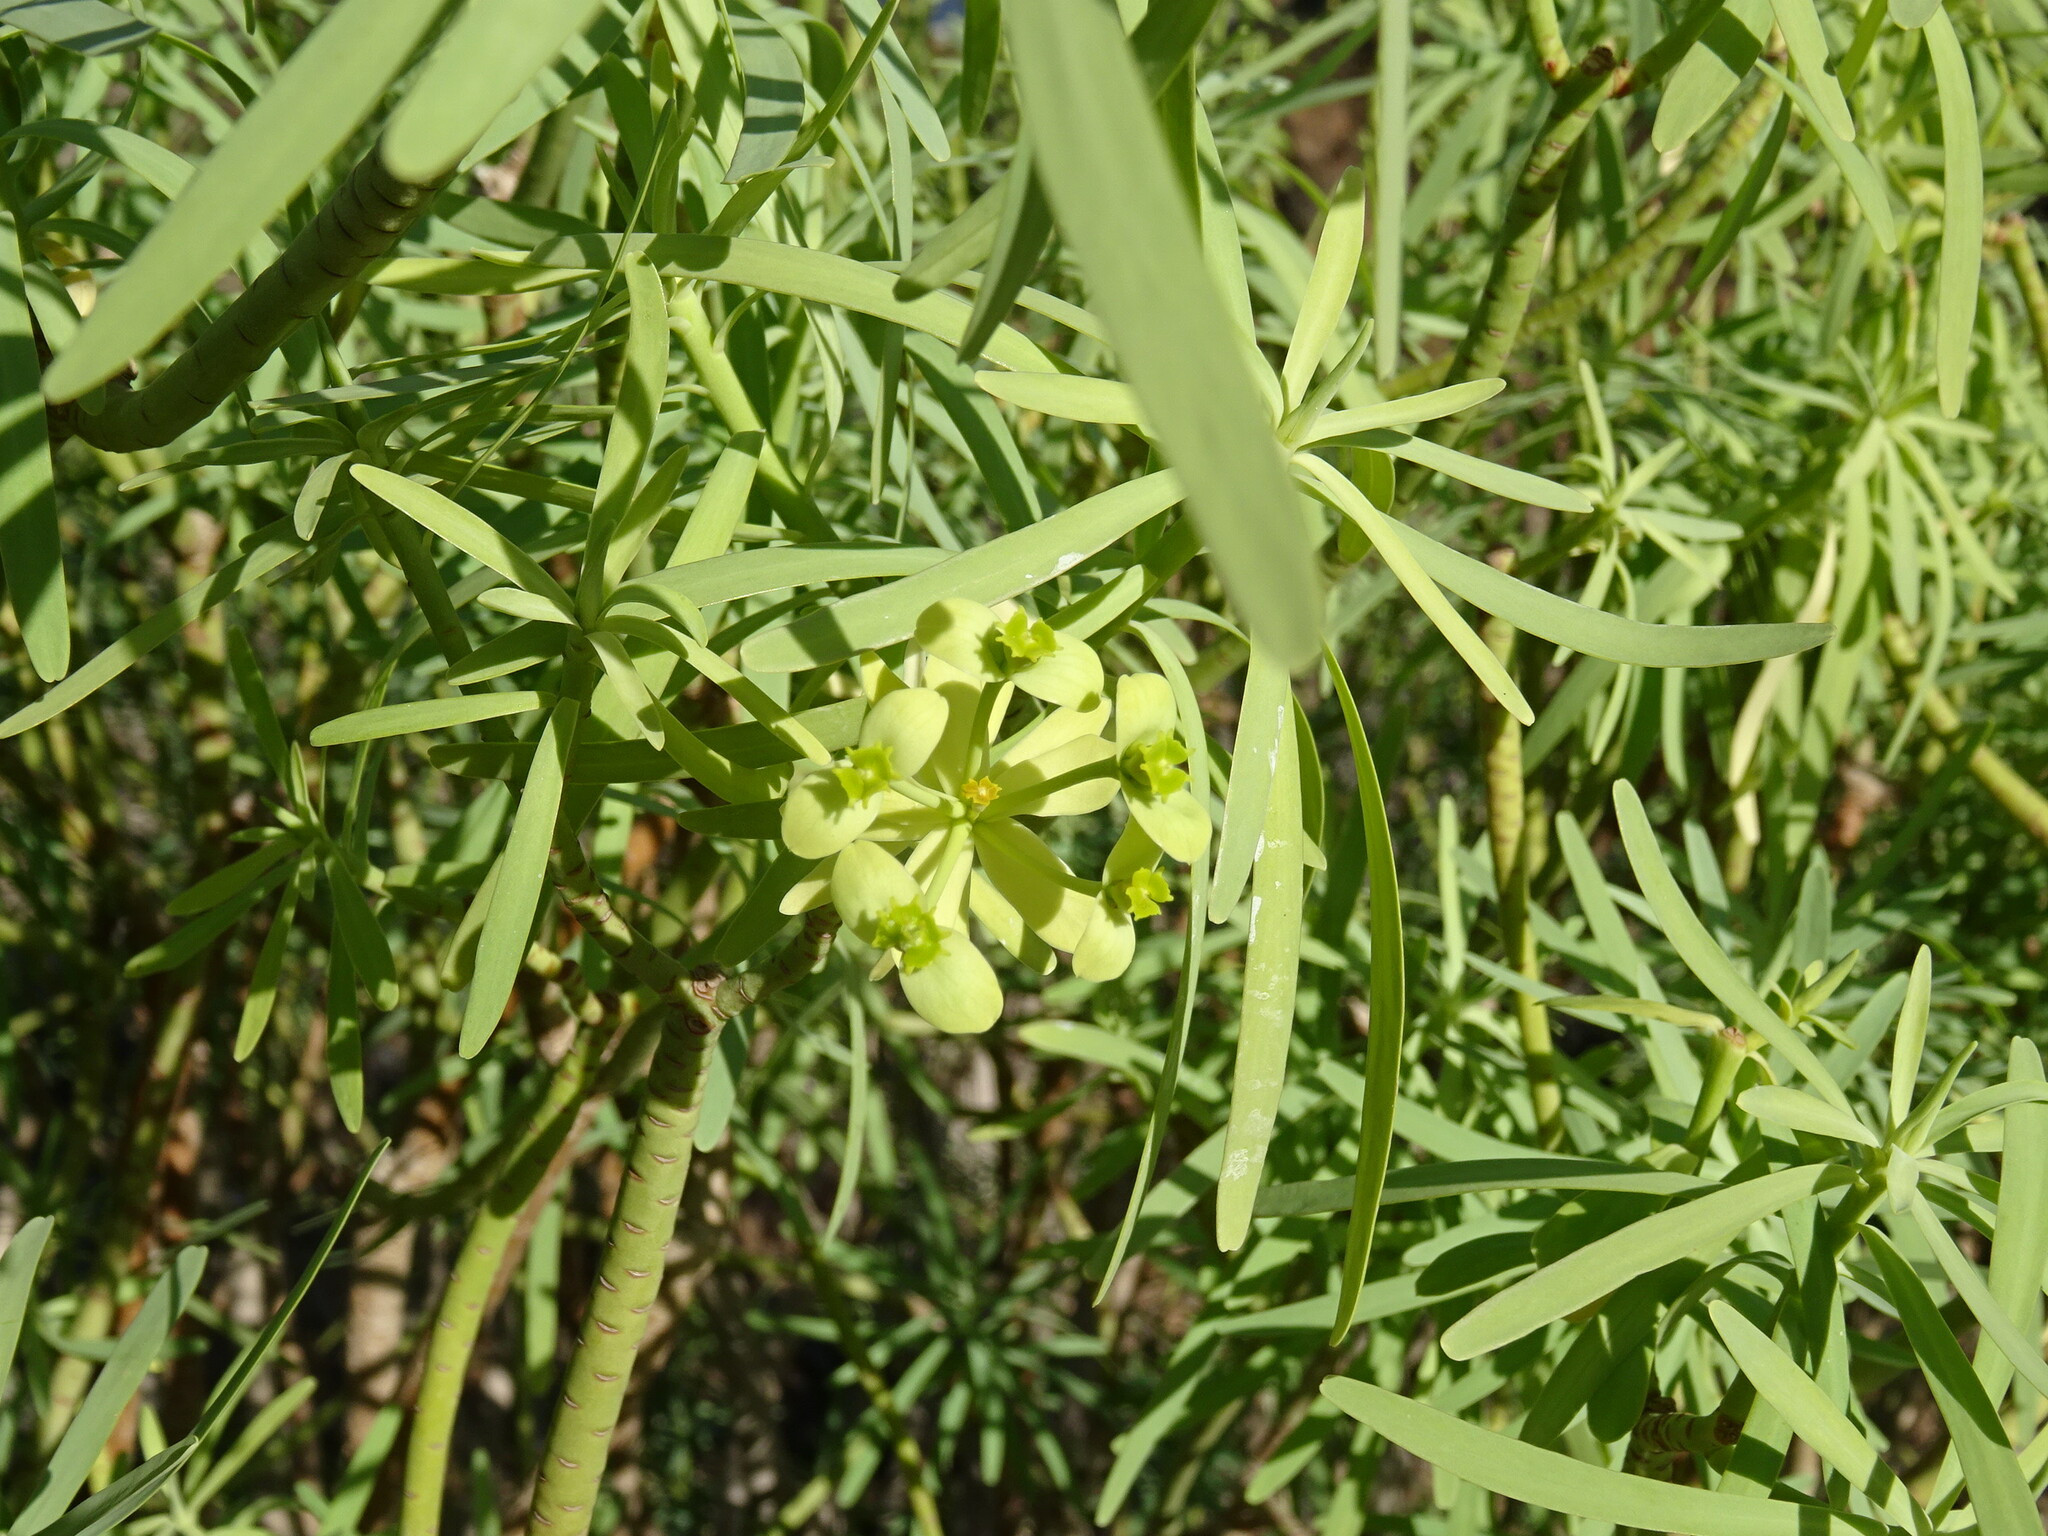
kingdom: Plantae
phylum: Tracheophyta
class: Magnoliopsida
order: Malpighiales
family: Euphorbiaceae
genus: Euphorbia
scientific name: Euphorbia regis-jubae
